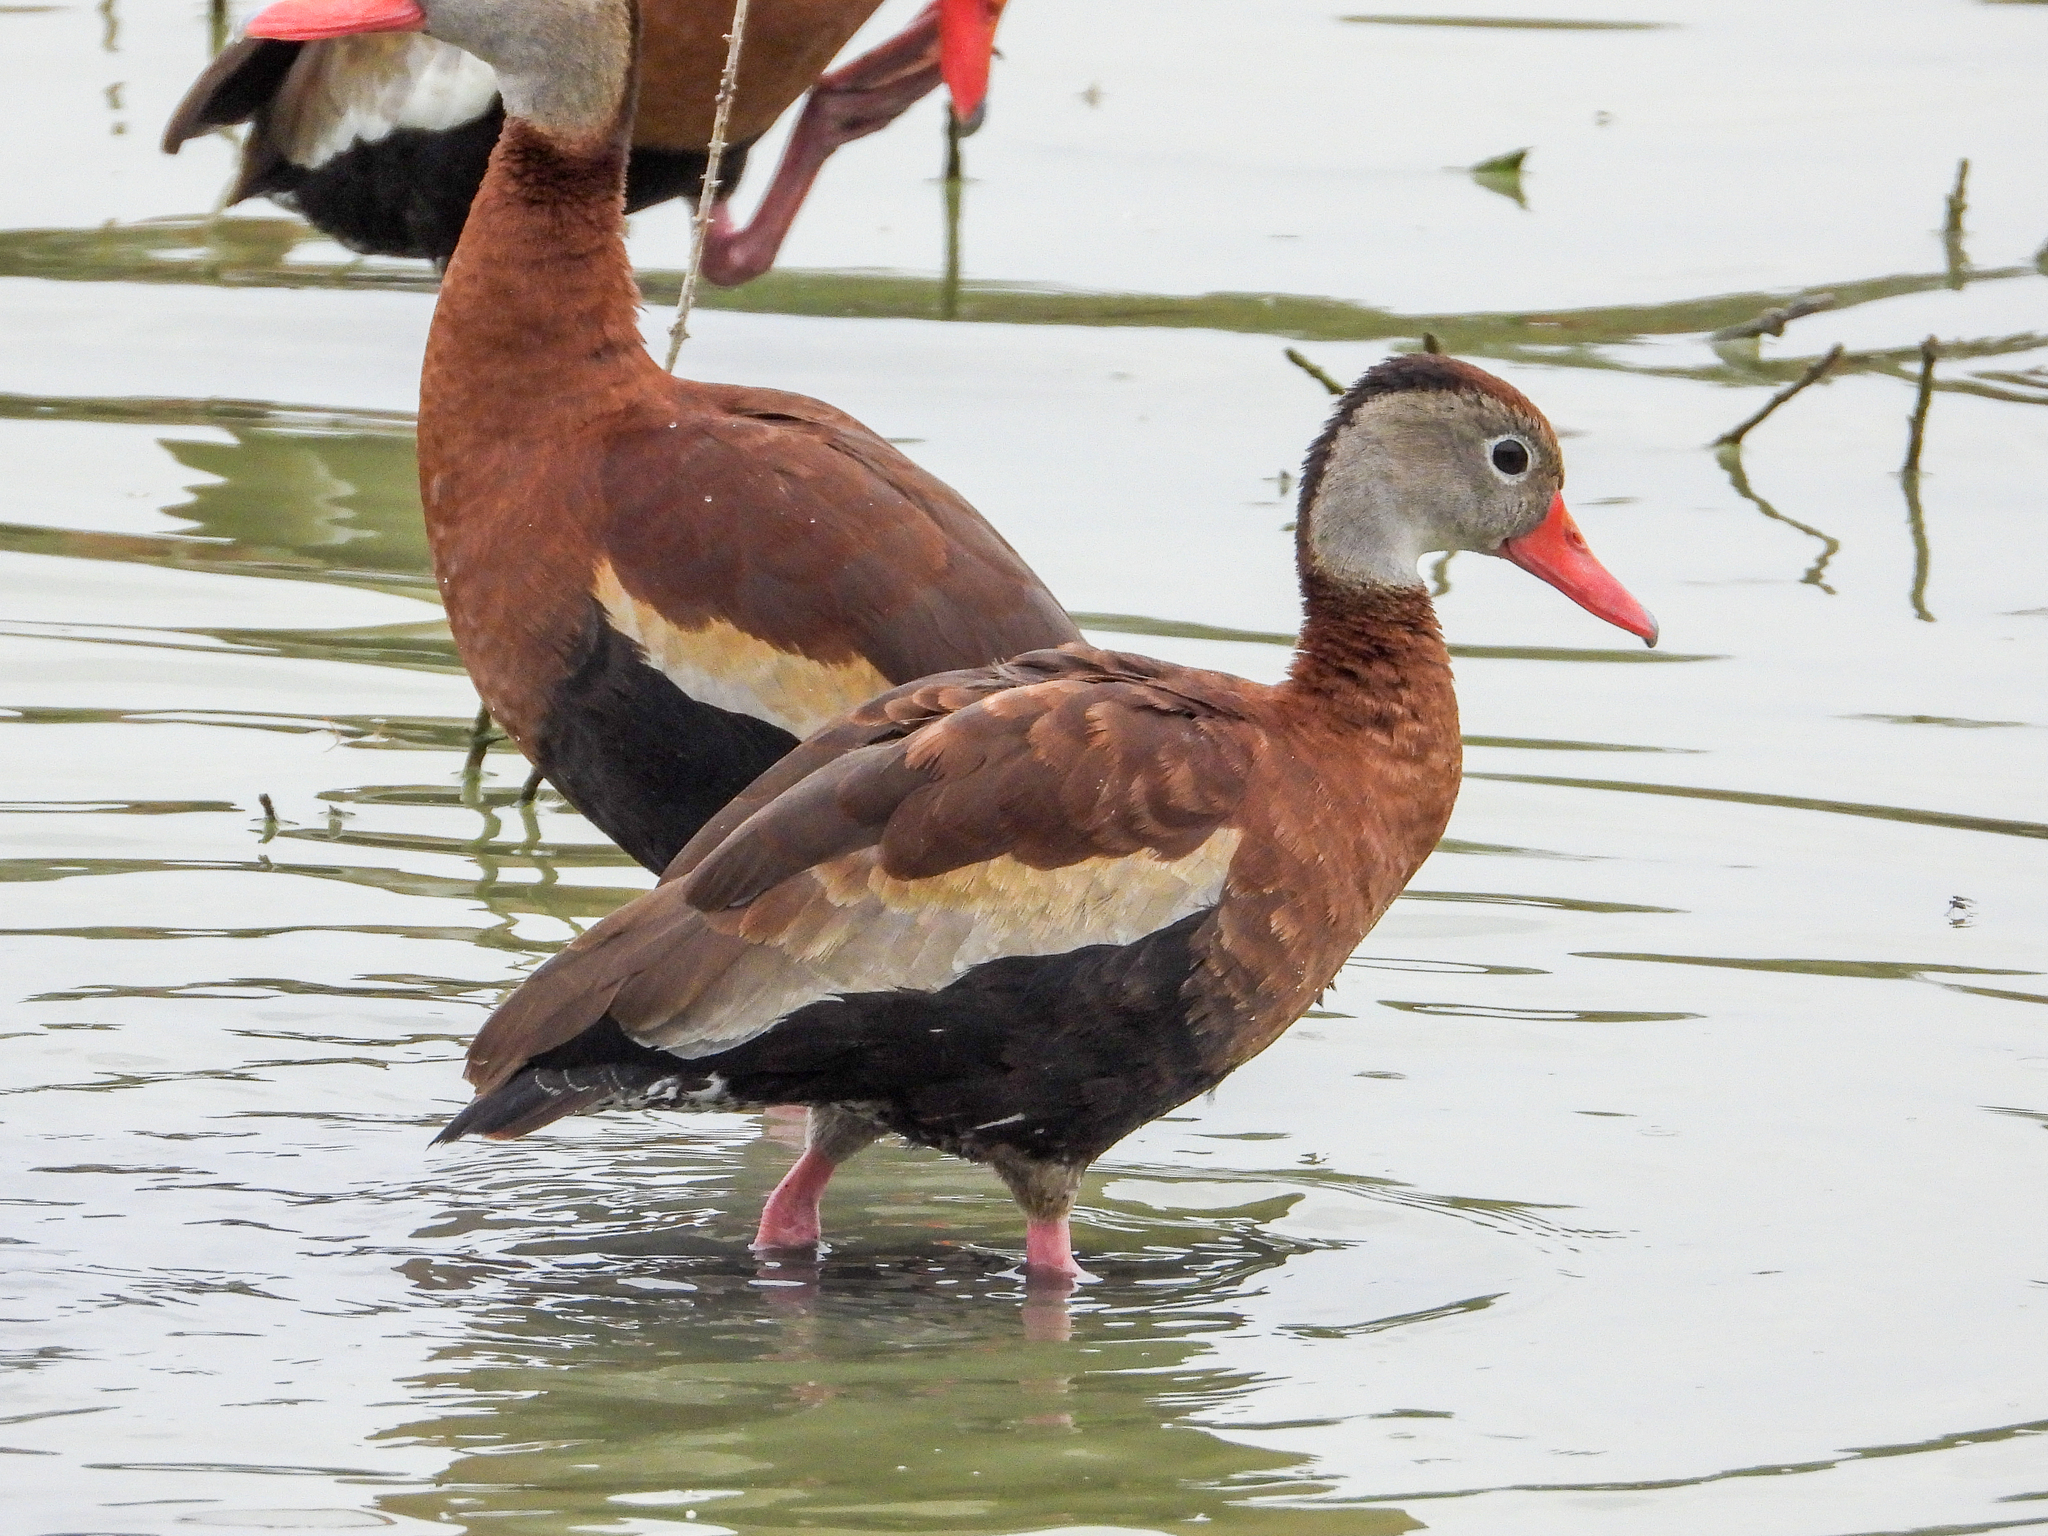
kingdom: Animalia
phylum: Chordata
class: Aves
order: Anseriformes
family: Anatidae
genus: Dendrocygna
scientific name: Dendrocygna autumnalis
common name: Black-bellied whistling duck
